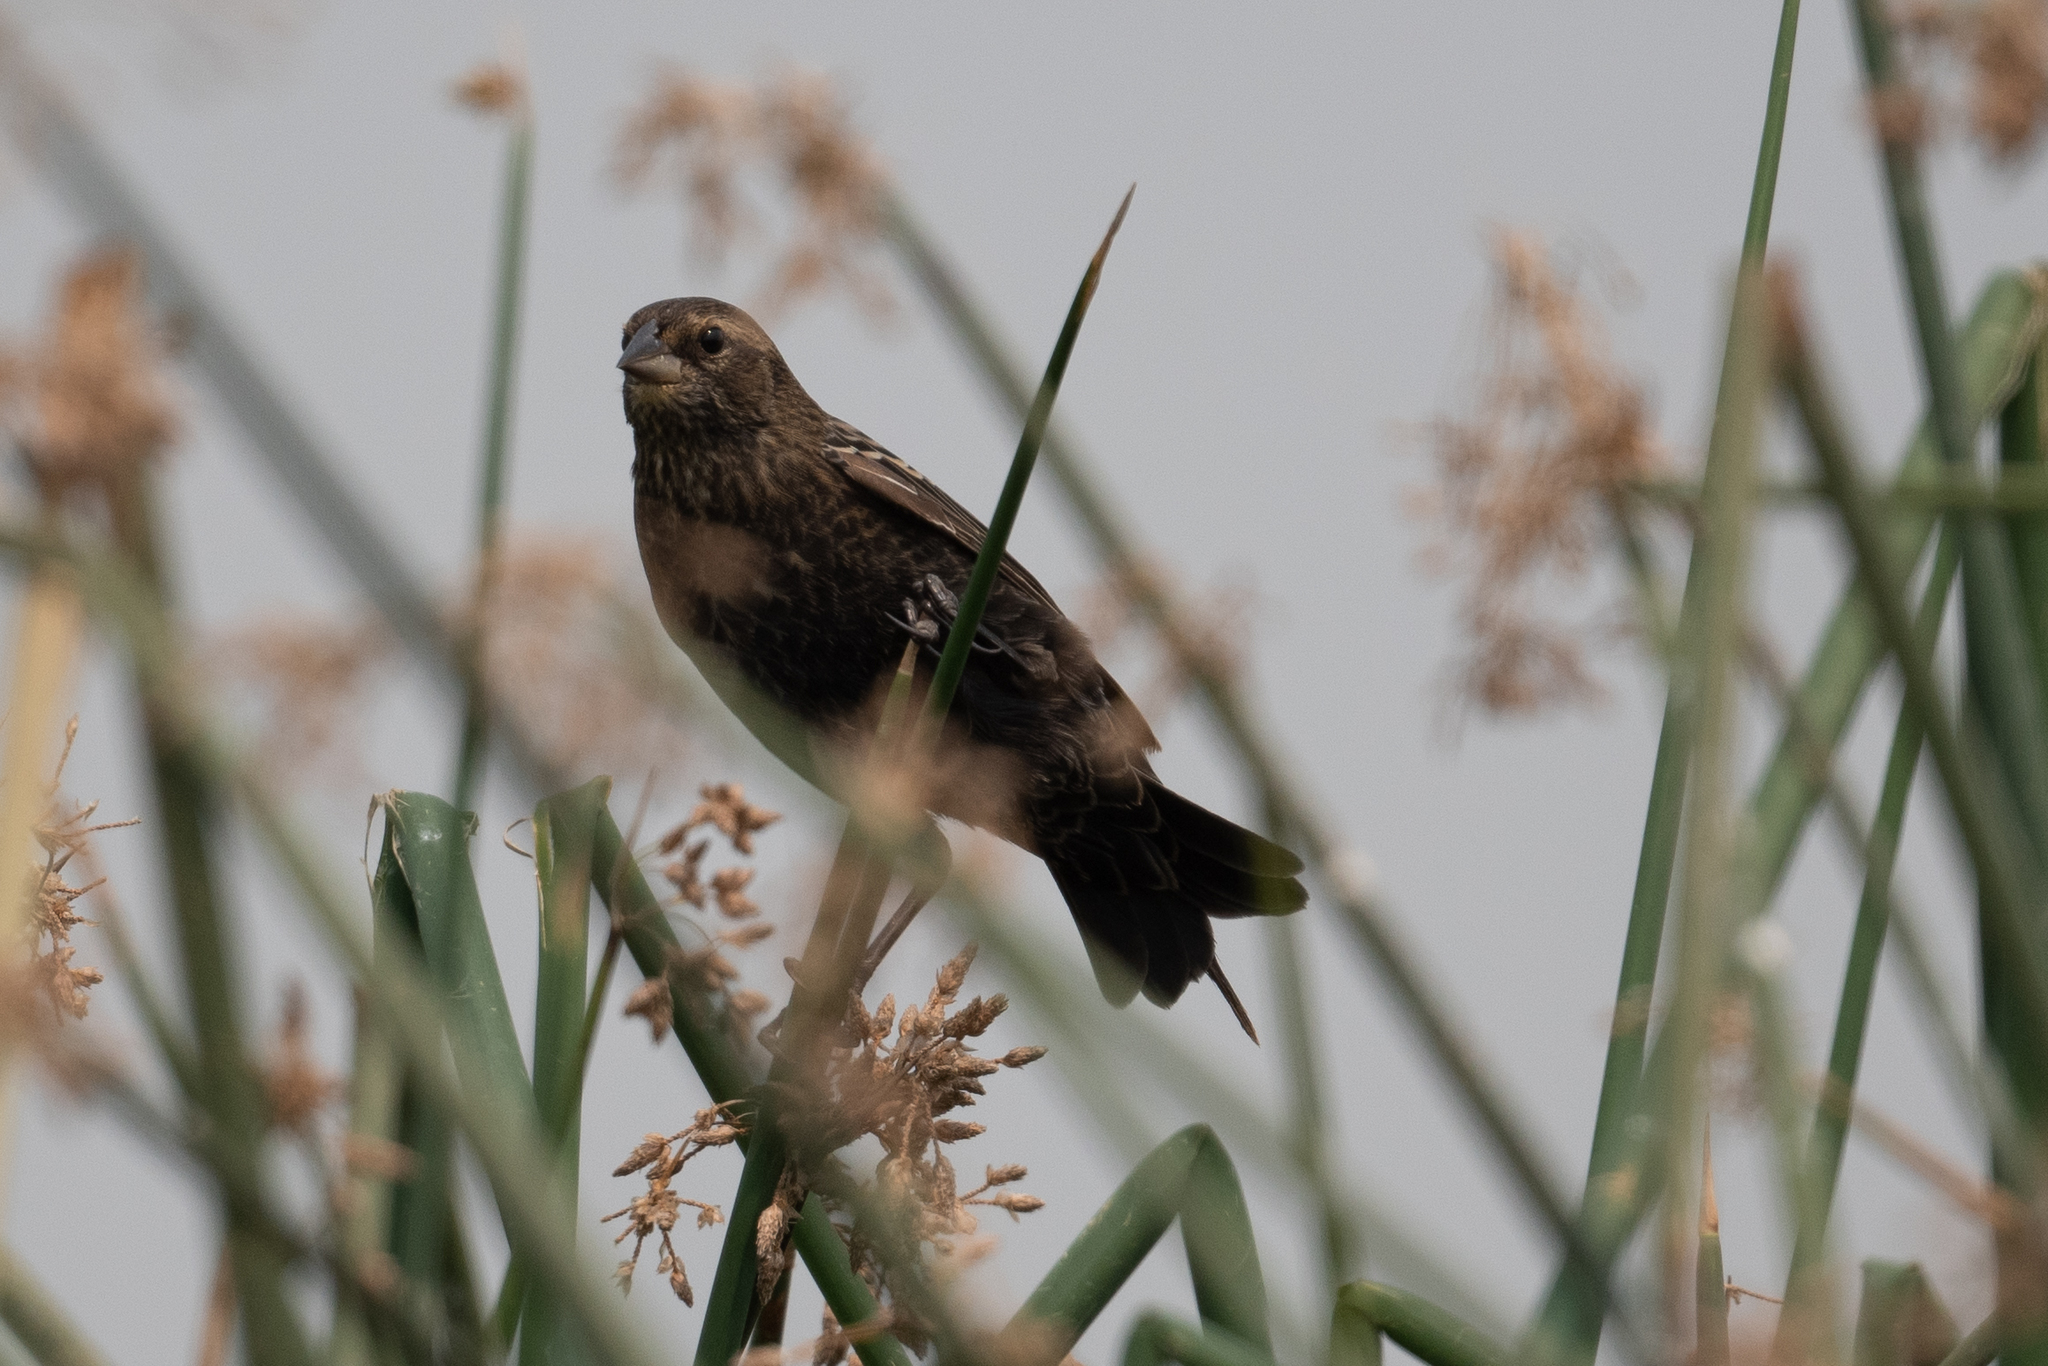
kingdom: Animalia
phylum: Chordata
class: Aves
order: Passeriformes
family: Icteridae
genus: Agelaius
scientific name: Agelaius phoeniceus
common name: Red-winged blackbird
